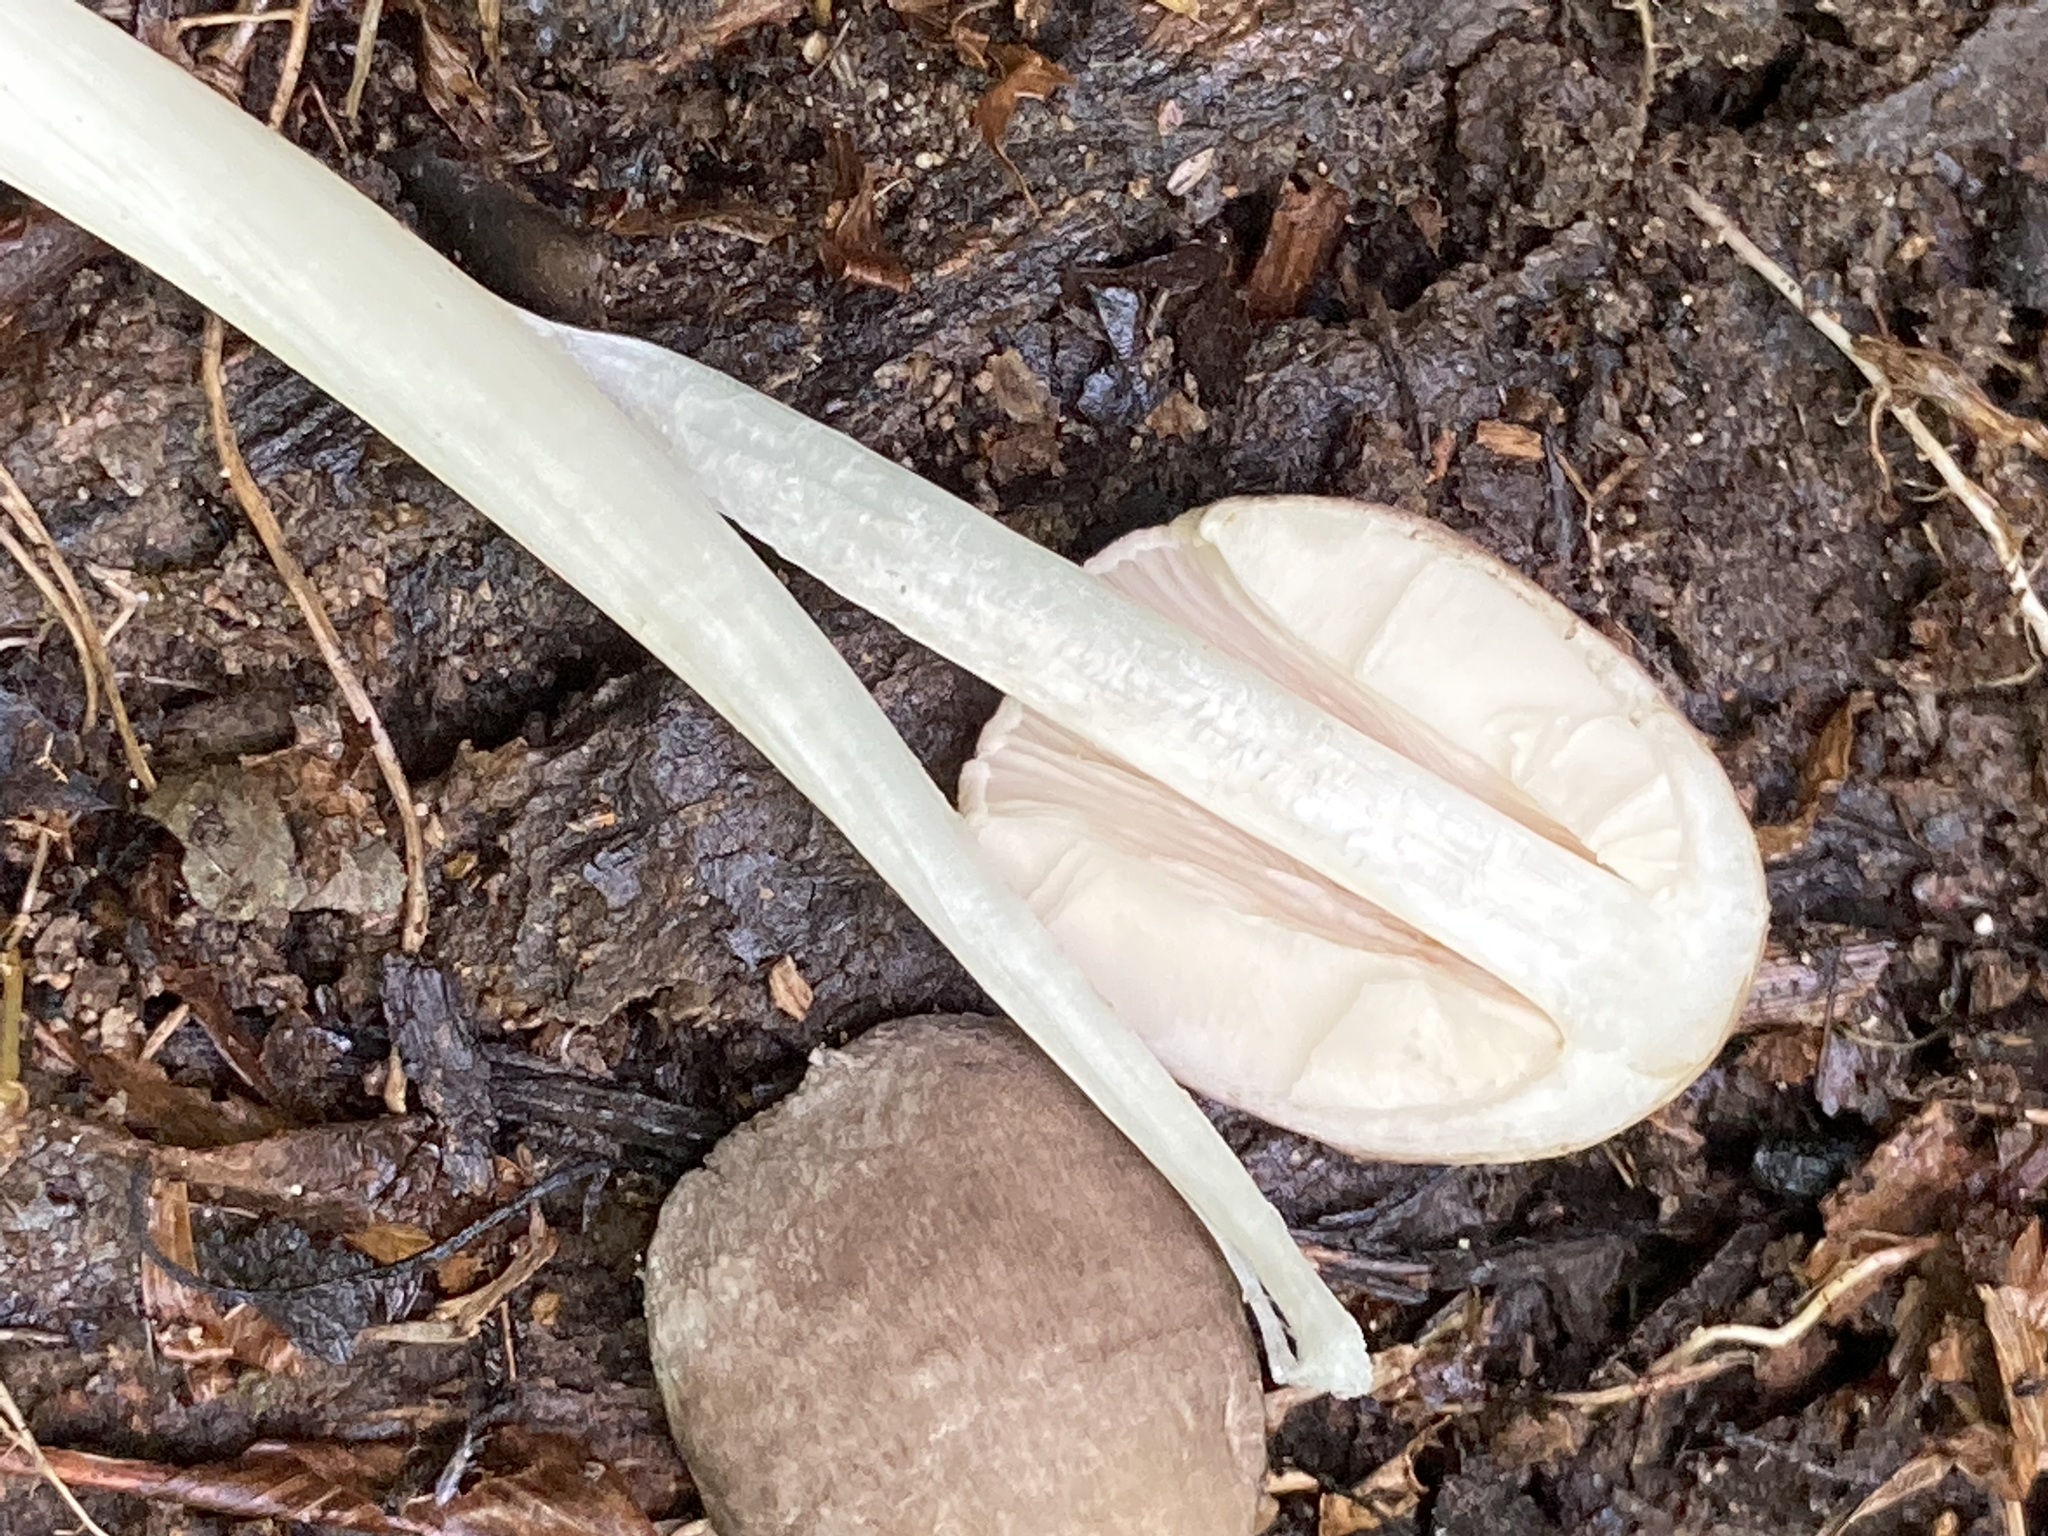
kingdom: Fungi
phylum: Basidiomycota
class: Agaricomycetes
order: Agaricales
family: Pluteaceae
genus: Pluteus
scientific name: Pluteus longistriatus
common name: Pleated pluteus
